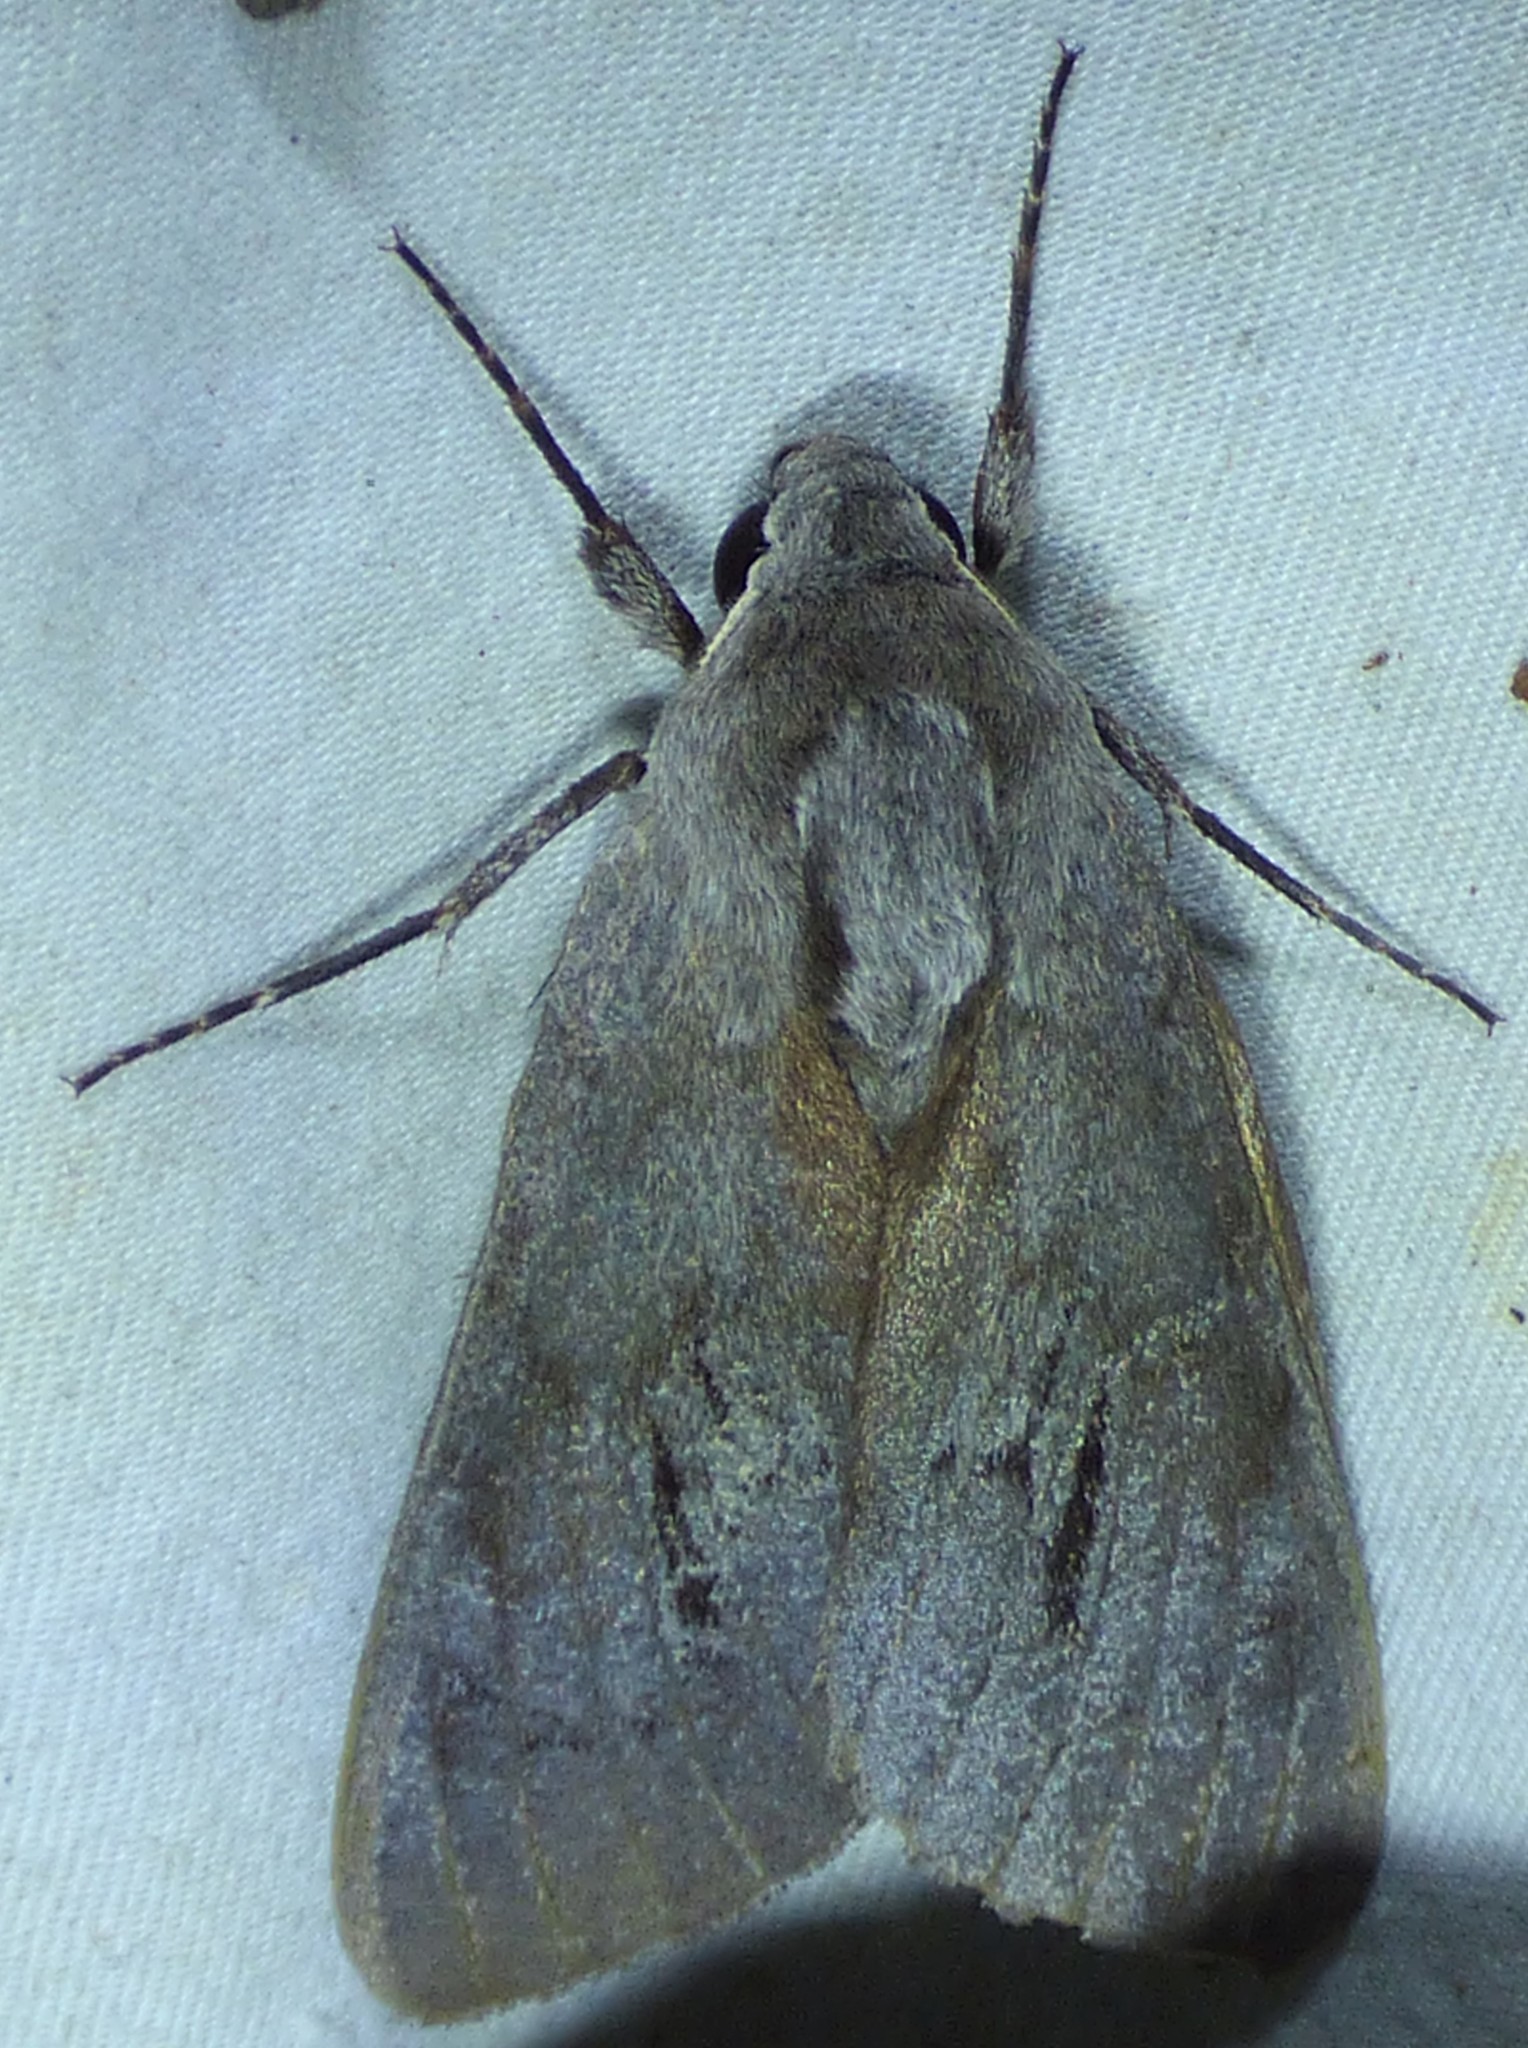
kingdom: Animalia
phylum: Arthropoda
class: Insecta
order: Lepidoptera
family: Sphingidae
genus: Lapara
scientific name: Lapara coniferarum
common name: Southern pine sphinx
